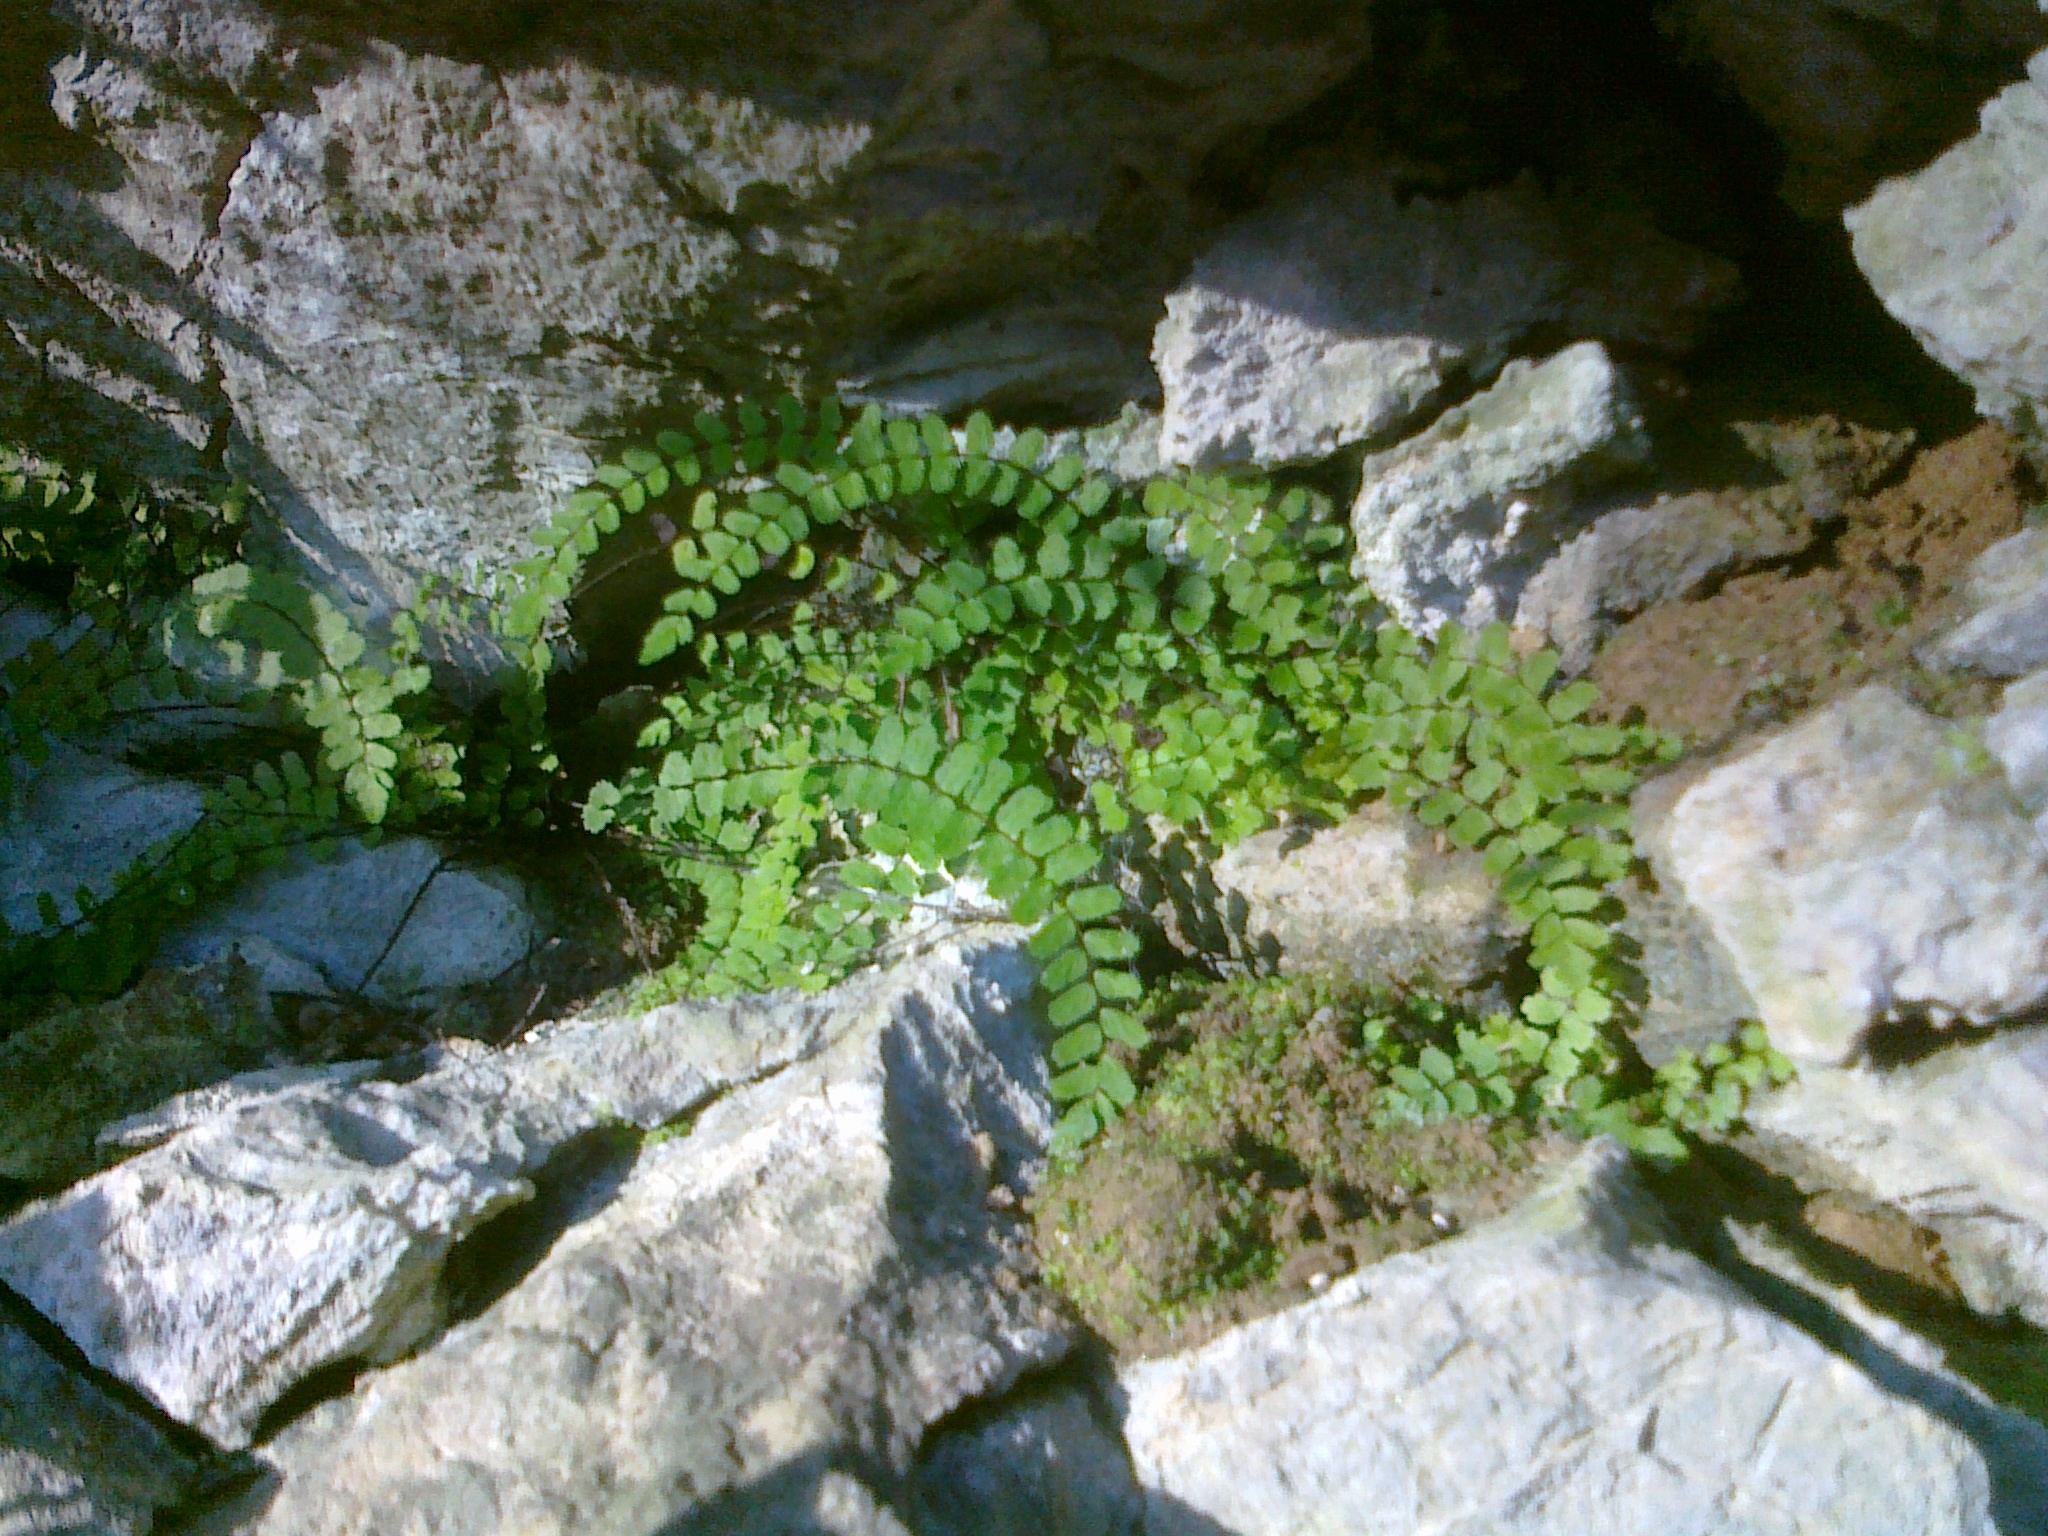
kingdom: Plantae
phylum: Tracheophyta
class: Polypodiopsida
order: Polypodiales
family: Aspleniaceae
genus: Asplenium
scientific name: Asplenium trichomanes
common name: Maidenhair spleenwort
